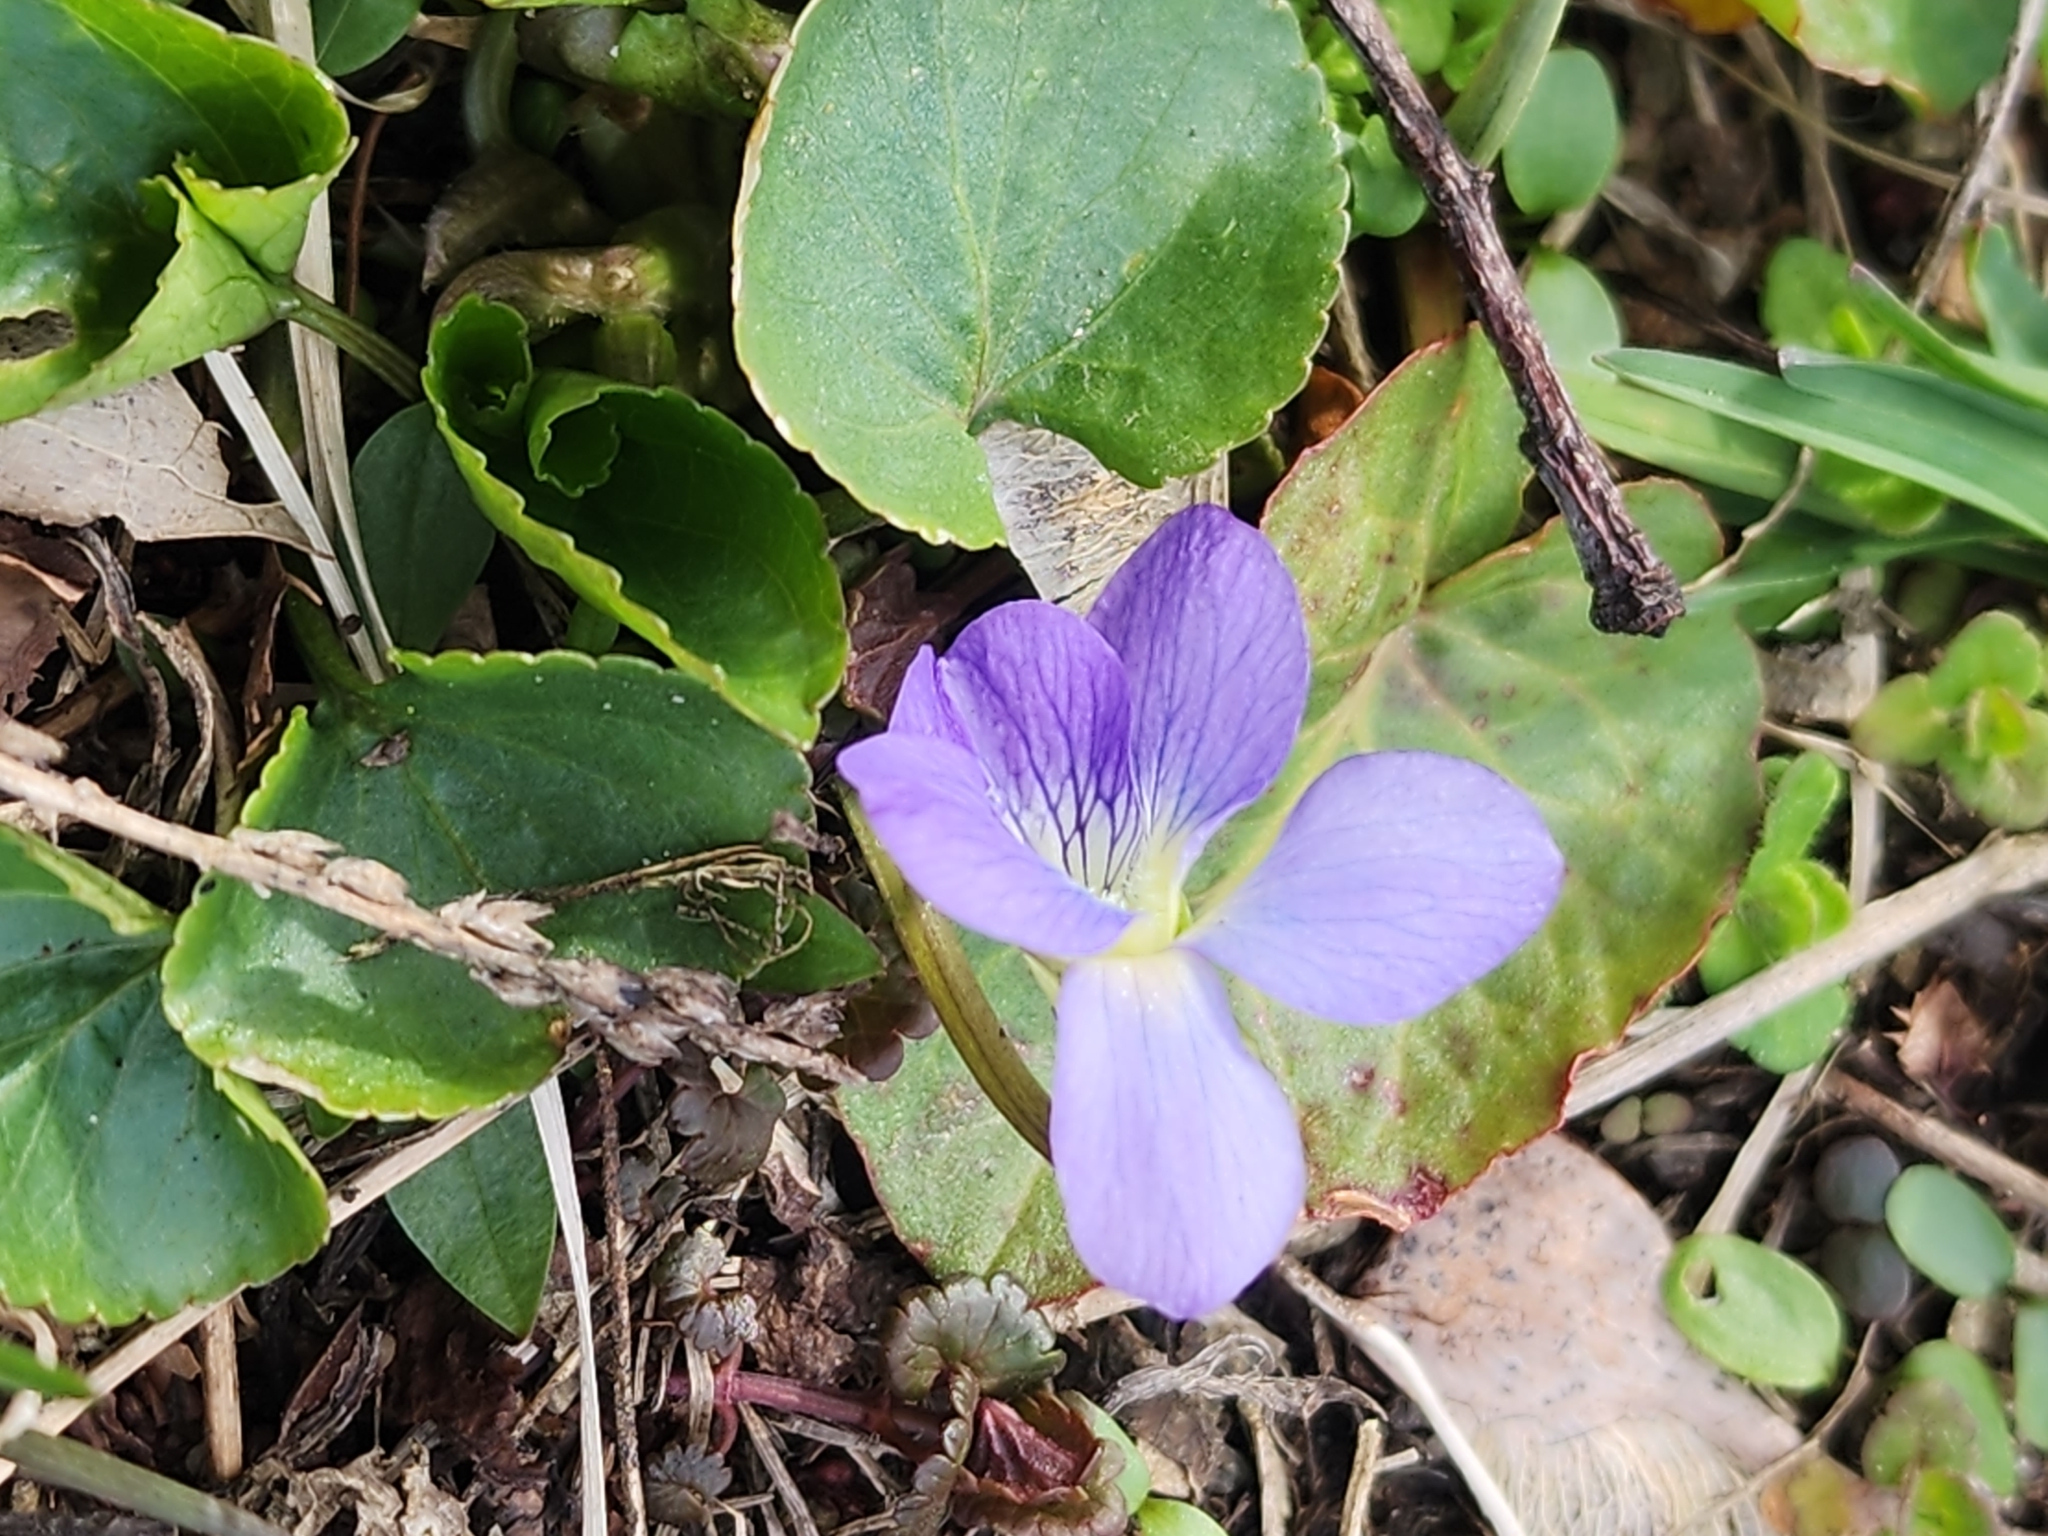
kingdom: Plantae
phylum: Tracheophyta
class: Magnoliopsida
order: Malpighiales
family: Violaceae
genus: Viola
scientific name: Viola sororia
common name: Dooryard violet
